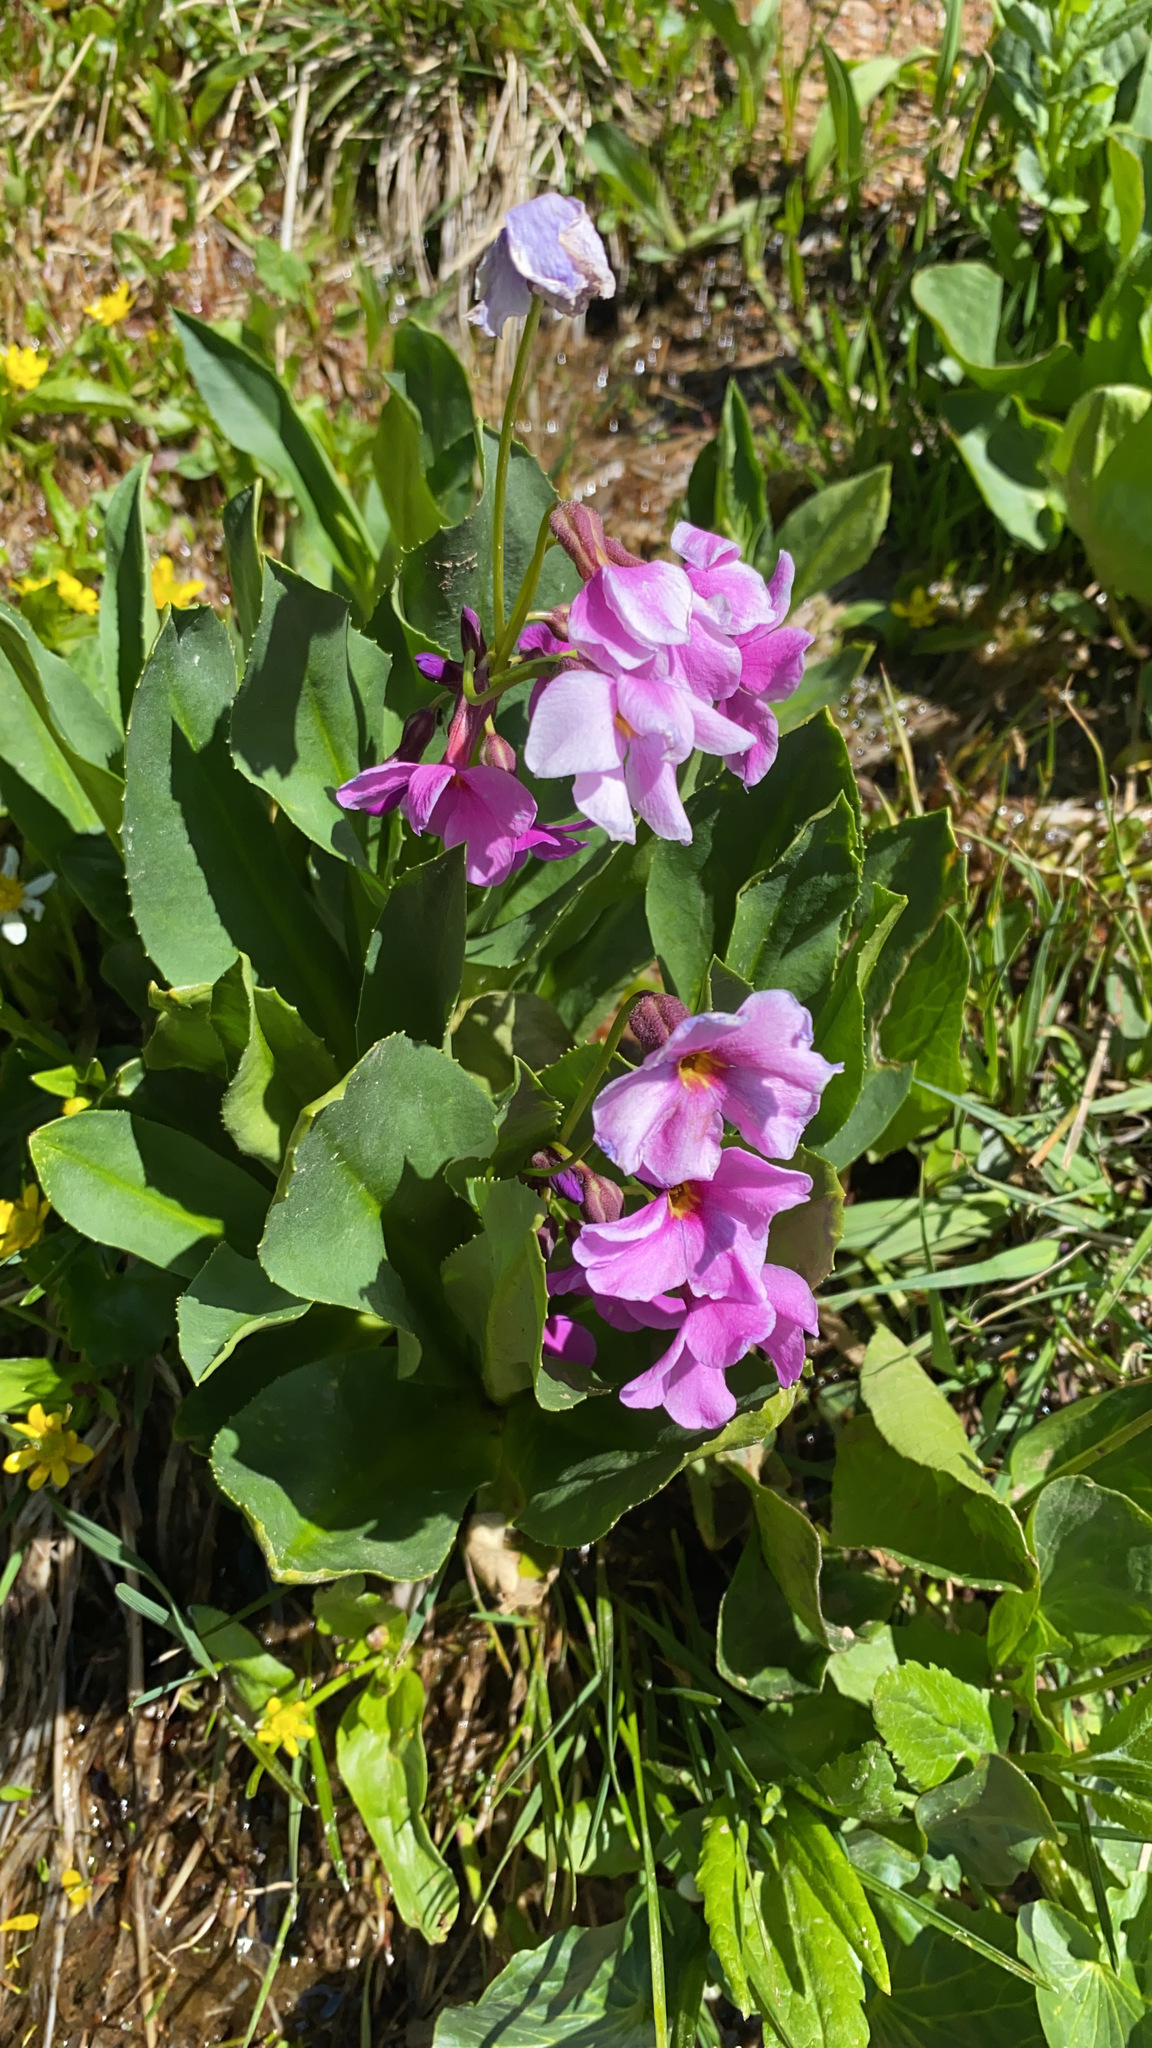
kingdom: Plantae
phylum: Tracheophyta
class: Magnoliopsida
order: Ericales
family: Primulaceae
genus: Primula
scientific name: Primula parryi
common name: Parry's primrose
